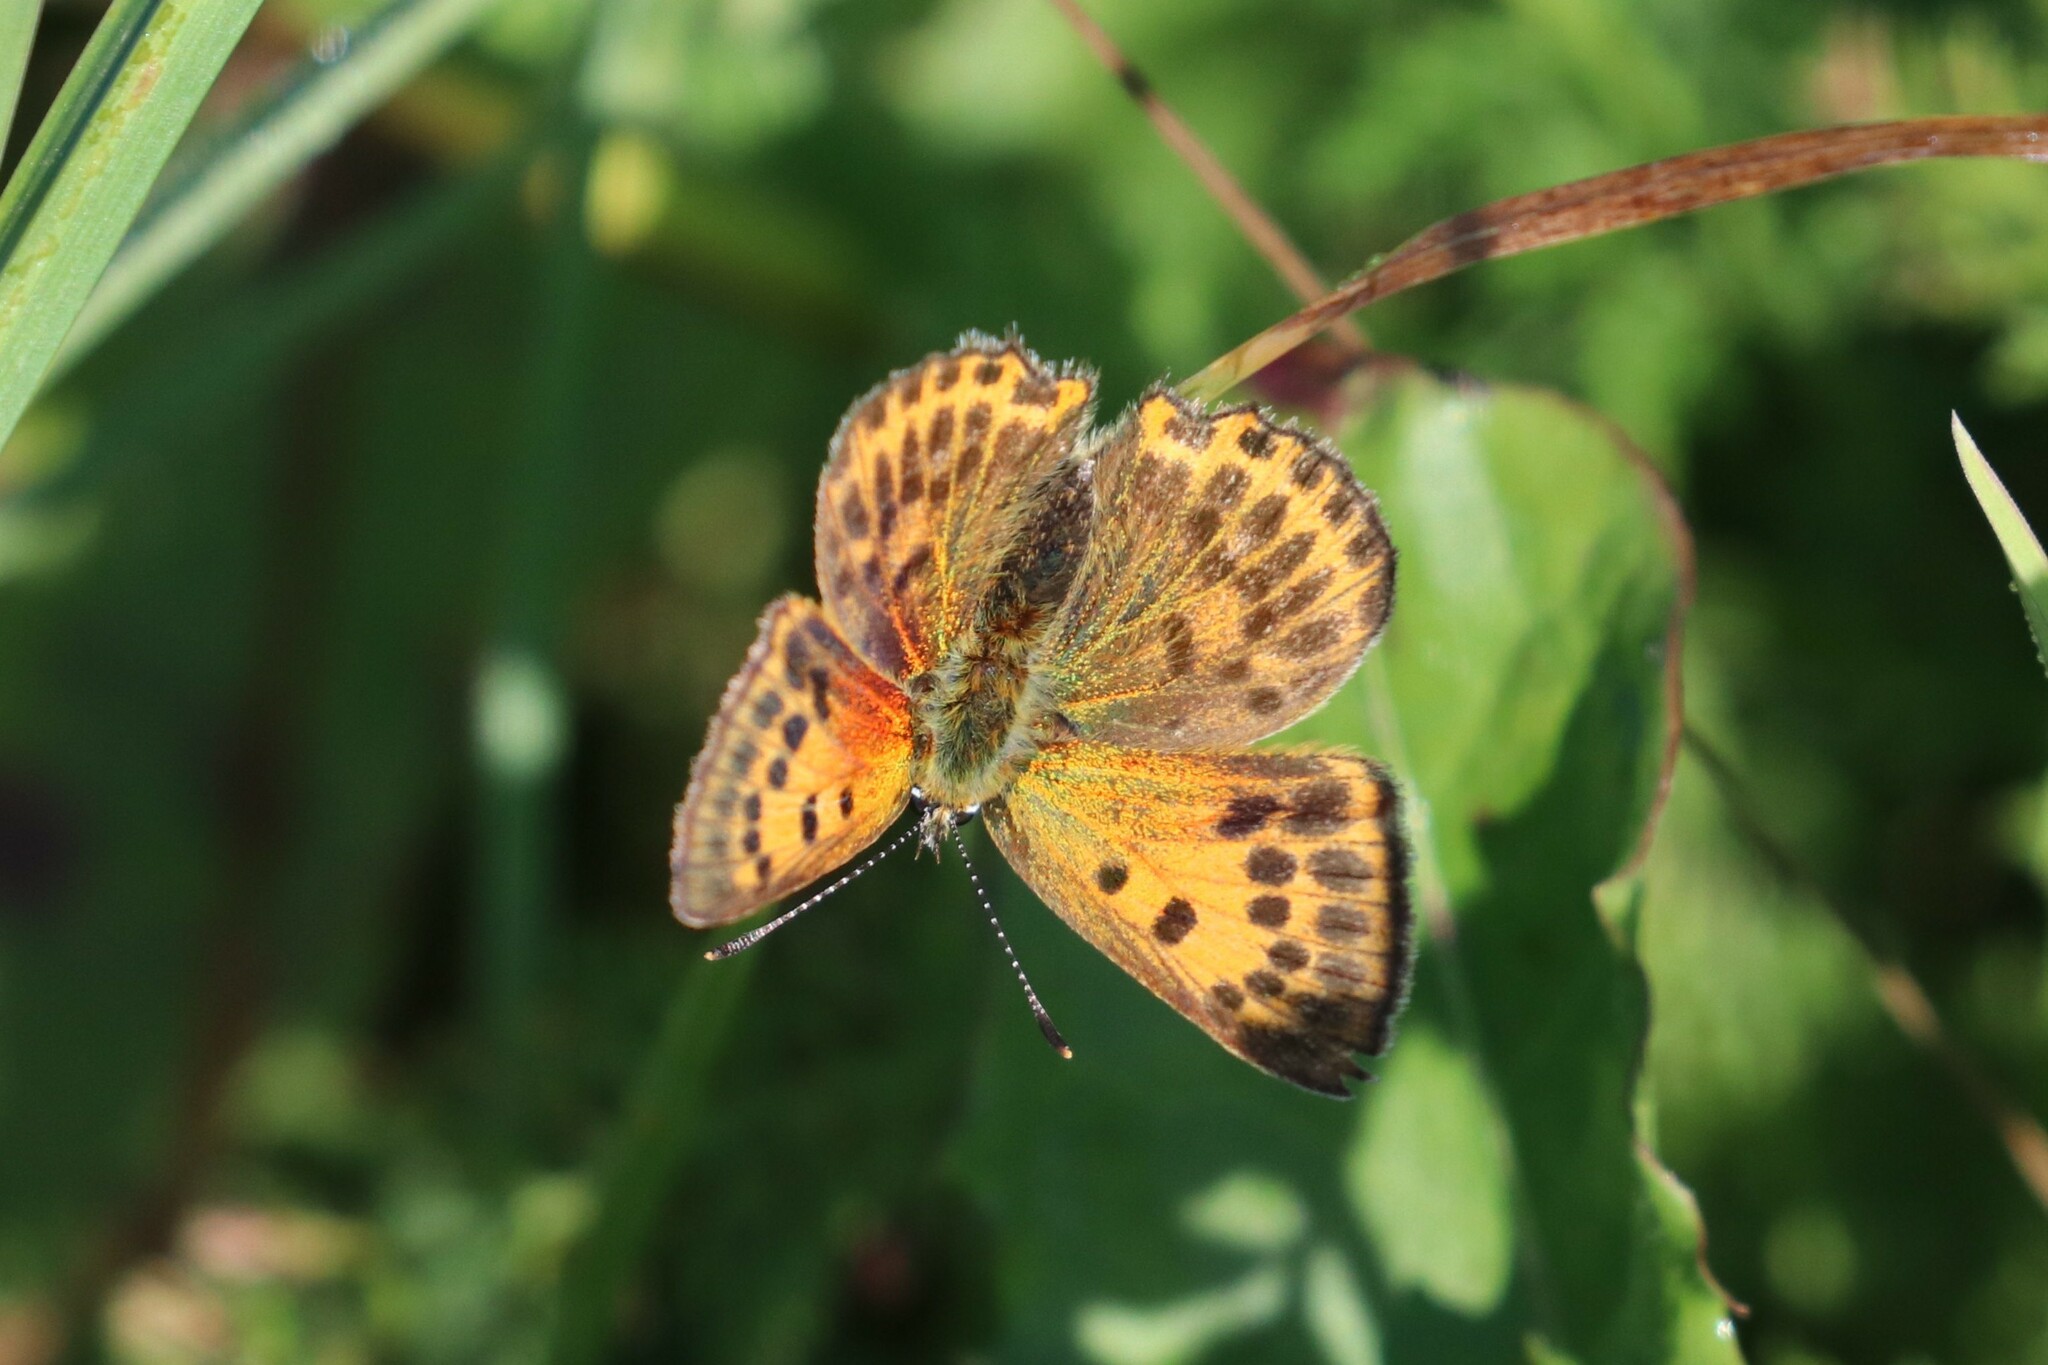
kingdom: Animalia
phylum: Arthropoda
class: Insecta
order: Lepidoptera
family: Lycaenidae
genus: Lycaena
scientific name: Lycaena virgaureae
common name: Scarce copper
